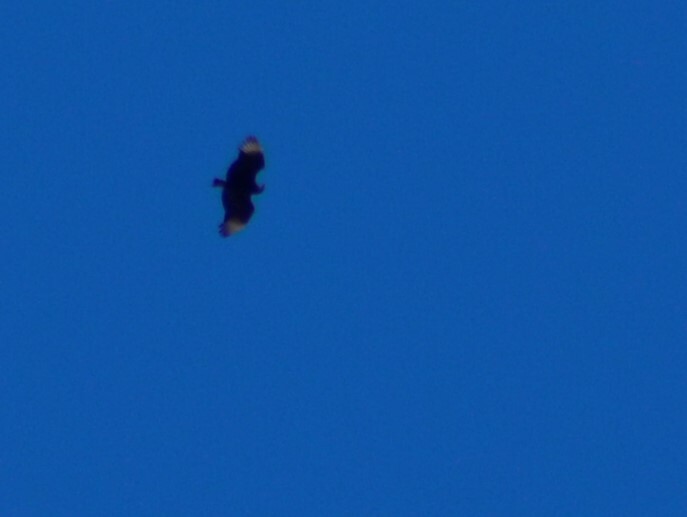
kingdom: Animalia
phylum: Chordata
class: Aves
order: Accipitriformes
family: Cathartidae
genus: Coragyps
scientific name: Coragyps atratus
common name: Black vulture
